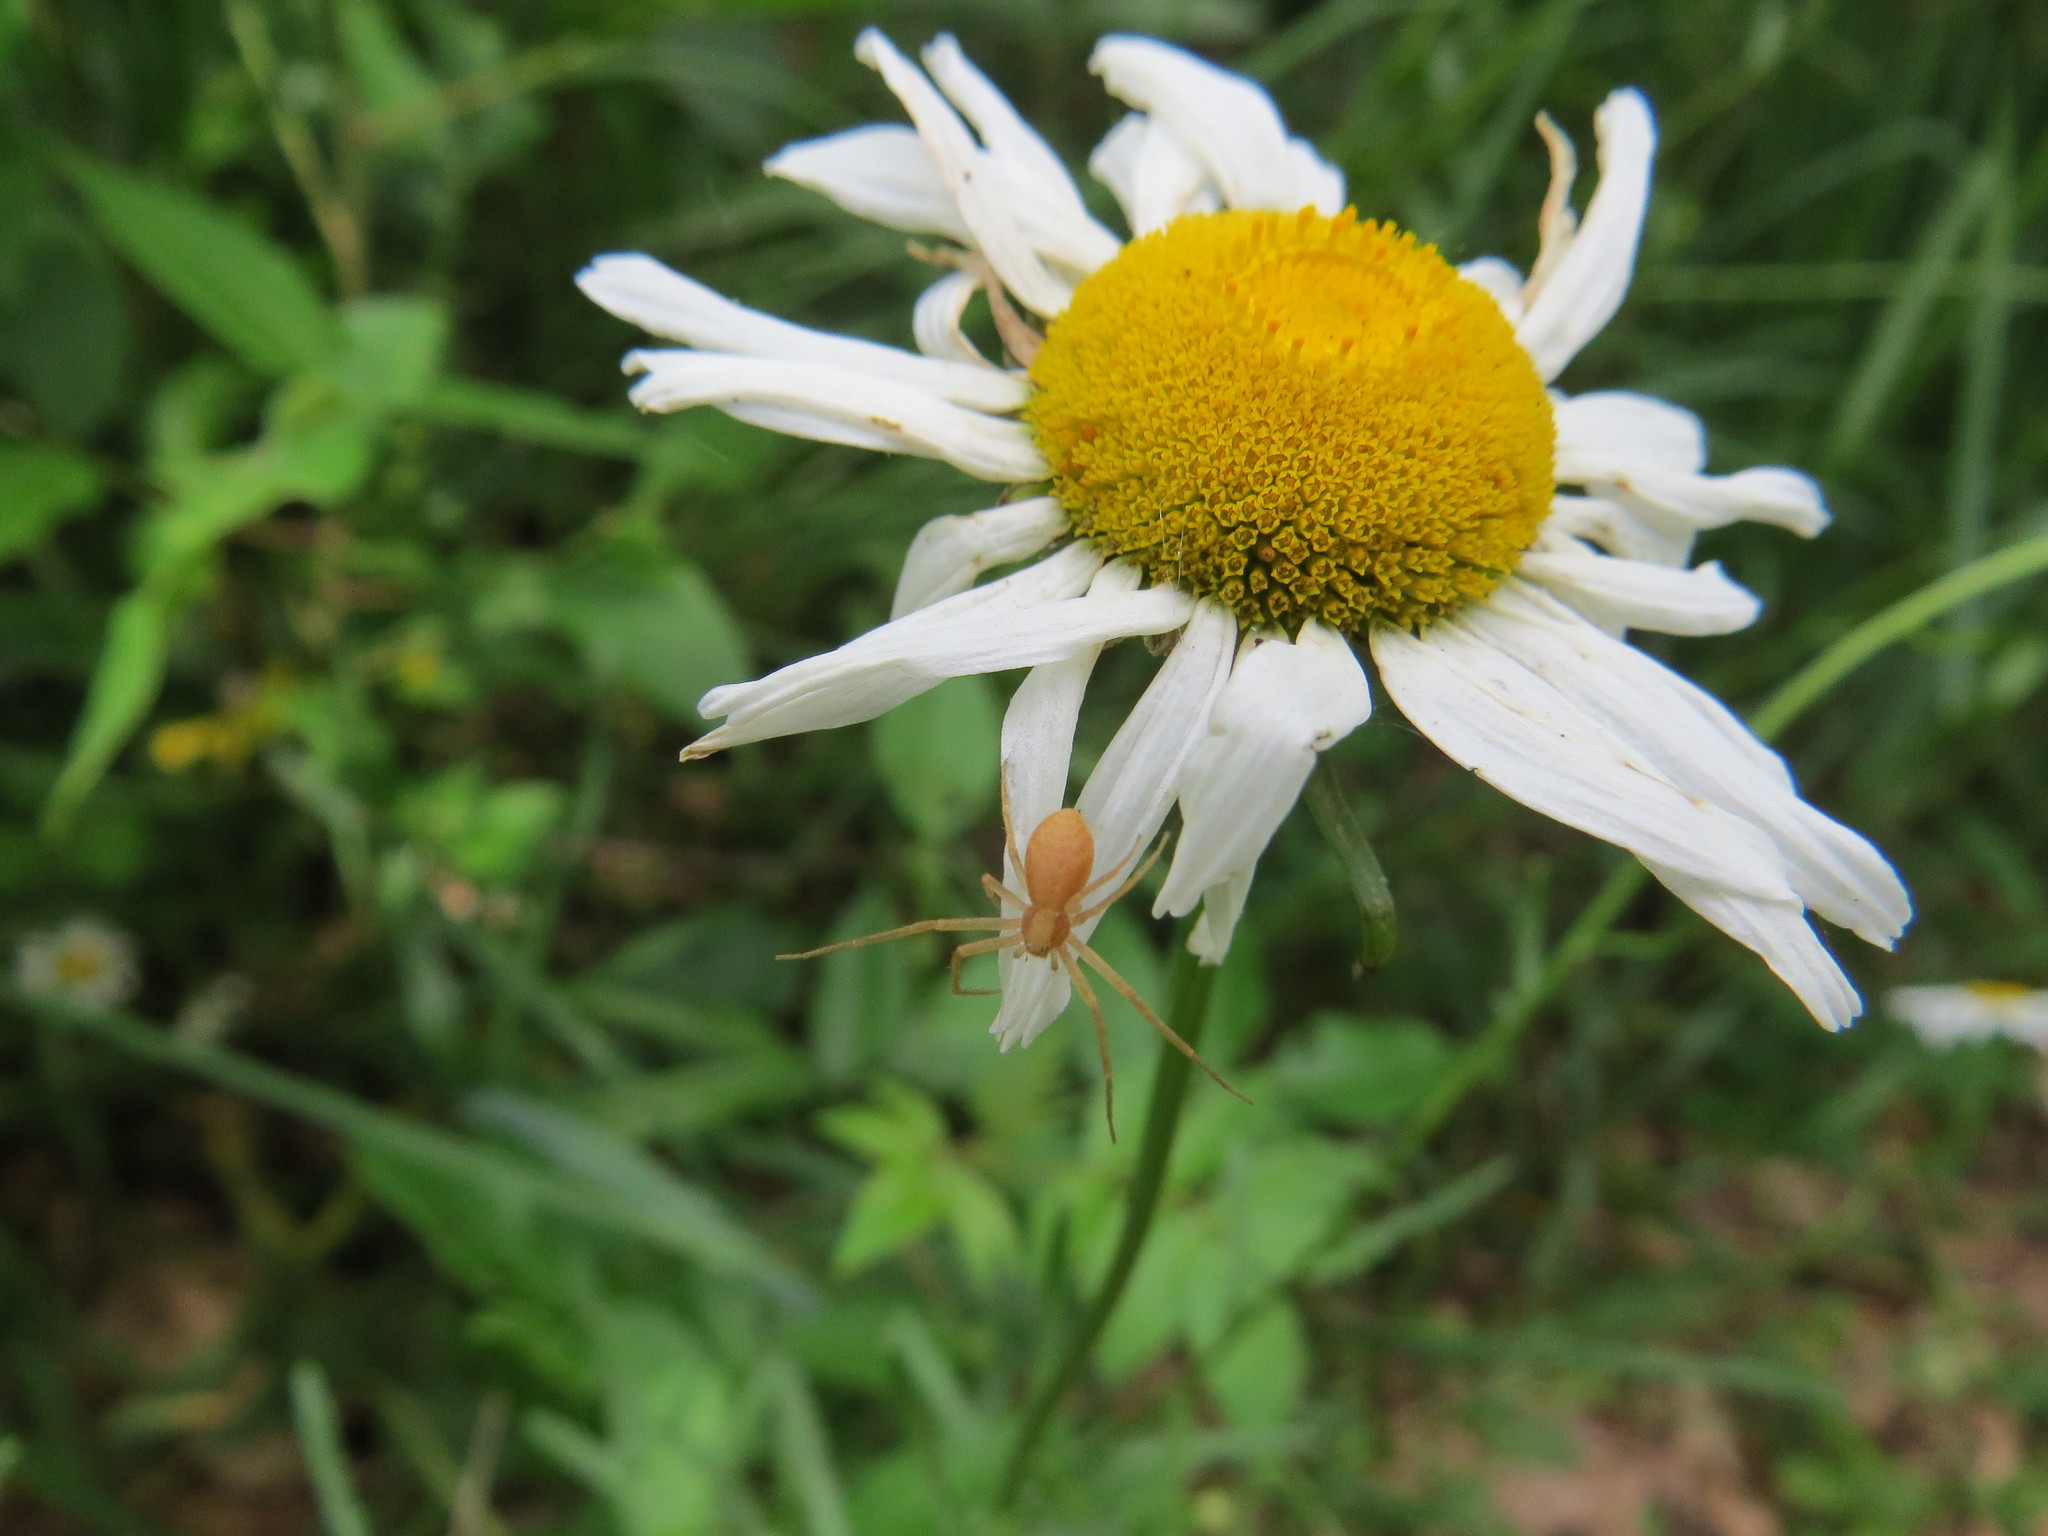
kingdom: Animalia
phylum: Arthropoda
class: Arachnida
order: Araneae
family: Philodromidae
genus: Philodromus
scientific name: Philodromus
